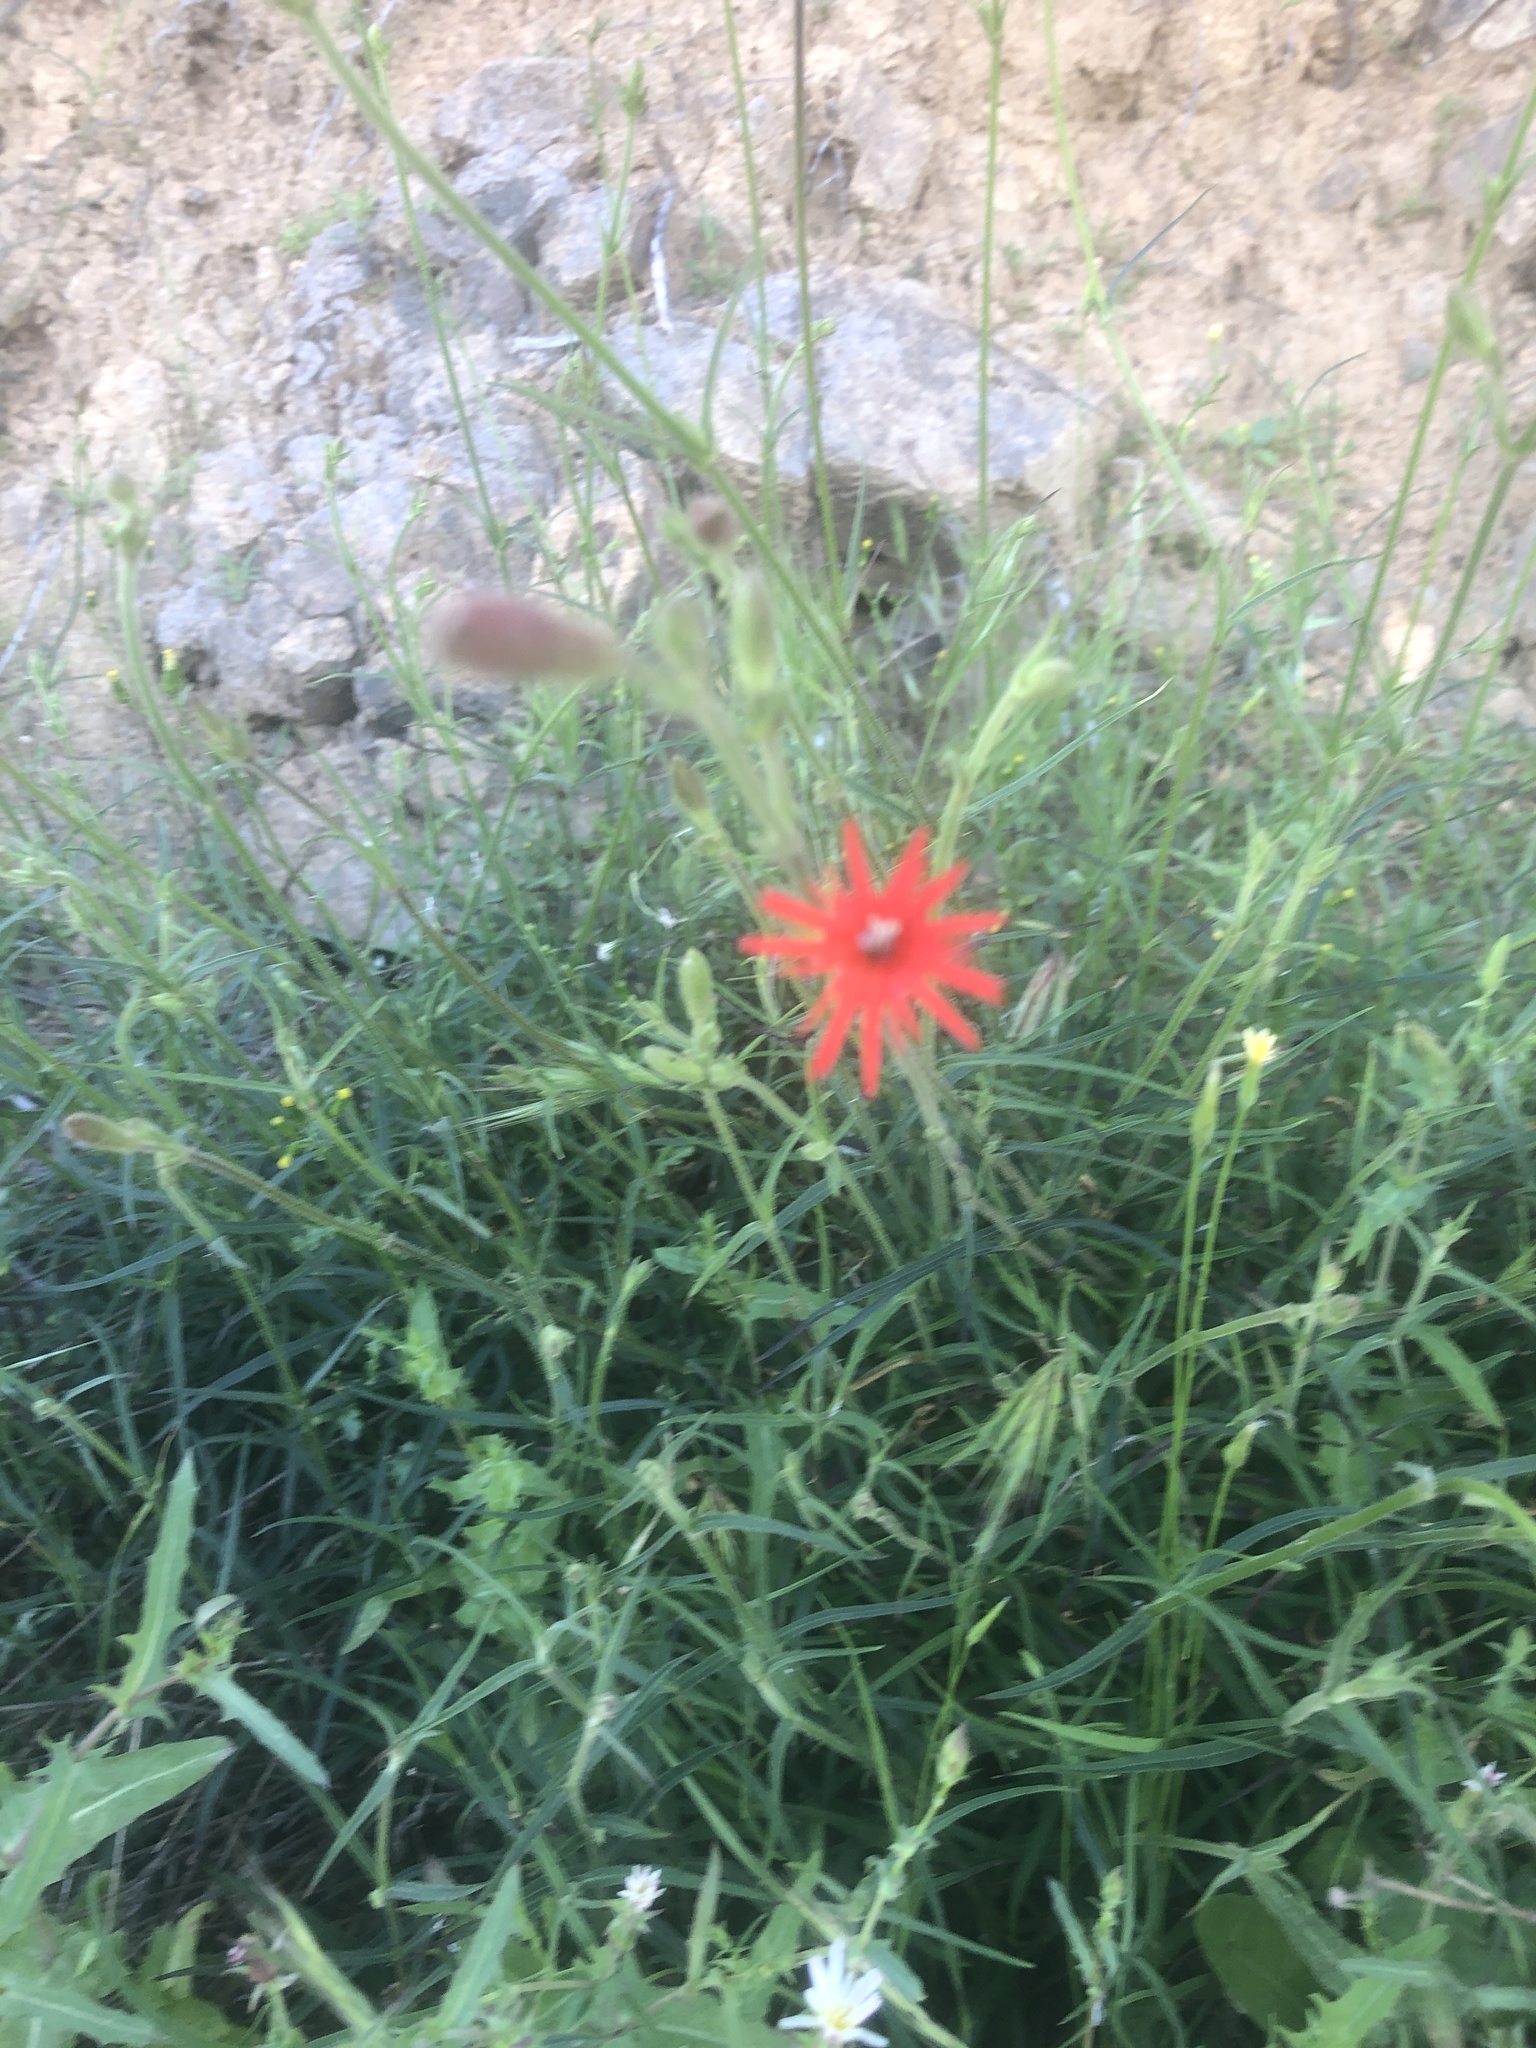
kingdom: Plantae
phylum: Tracheophyta
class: Magnoliopsida
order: Caryophyllales
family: Caryophyllaceae
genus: Silene
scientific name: Silene laciniata
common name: Indian-pink
